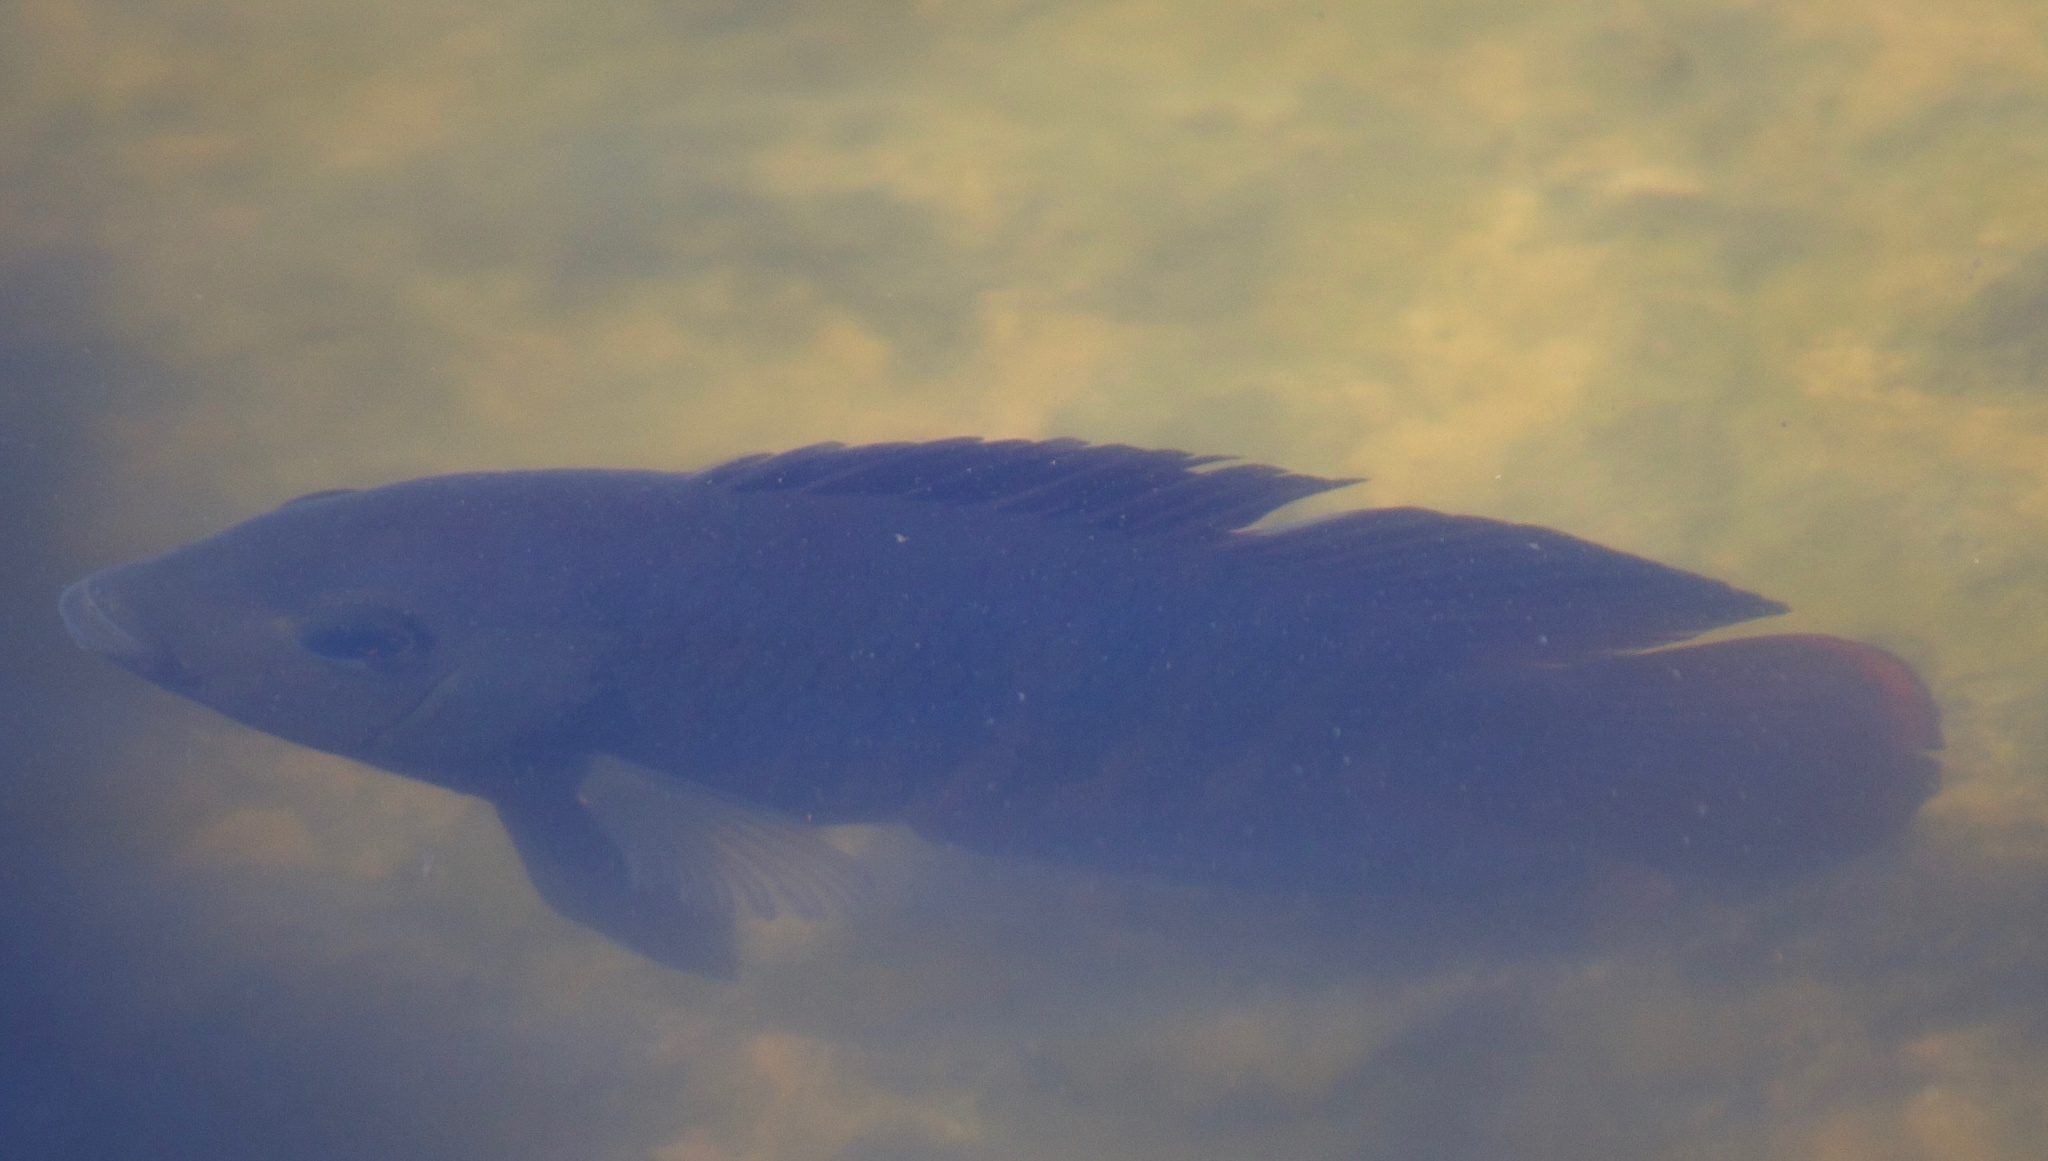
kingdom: Animalia
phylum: Chordata
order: Perciformes
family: Cichlidae
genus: Australoheros
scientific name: Australoheros facetus
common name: Chameleon cichlid
